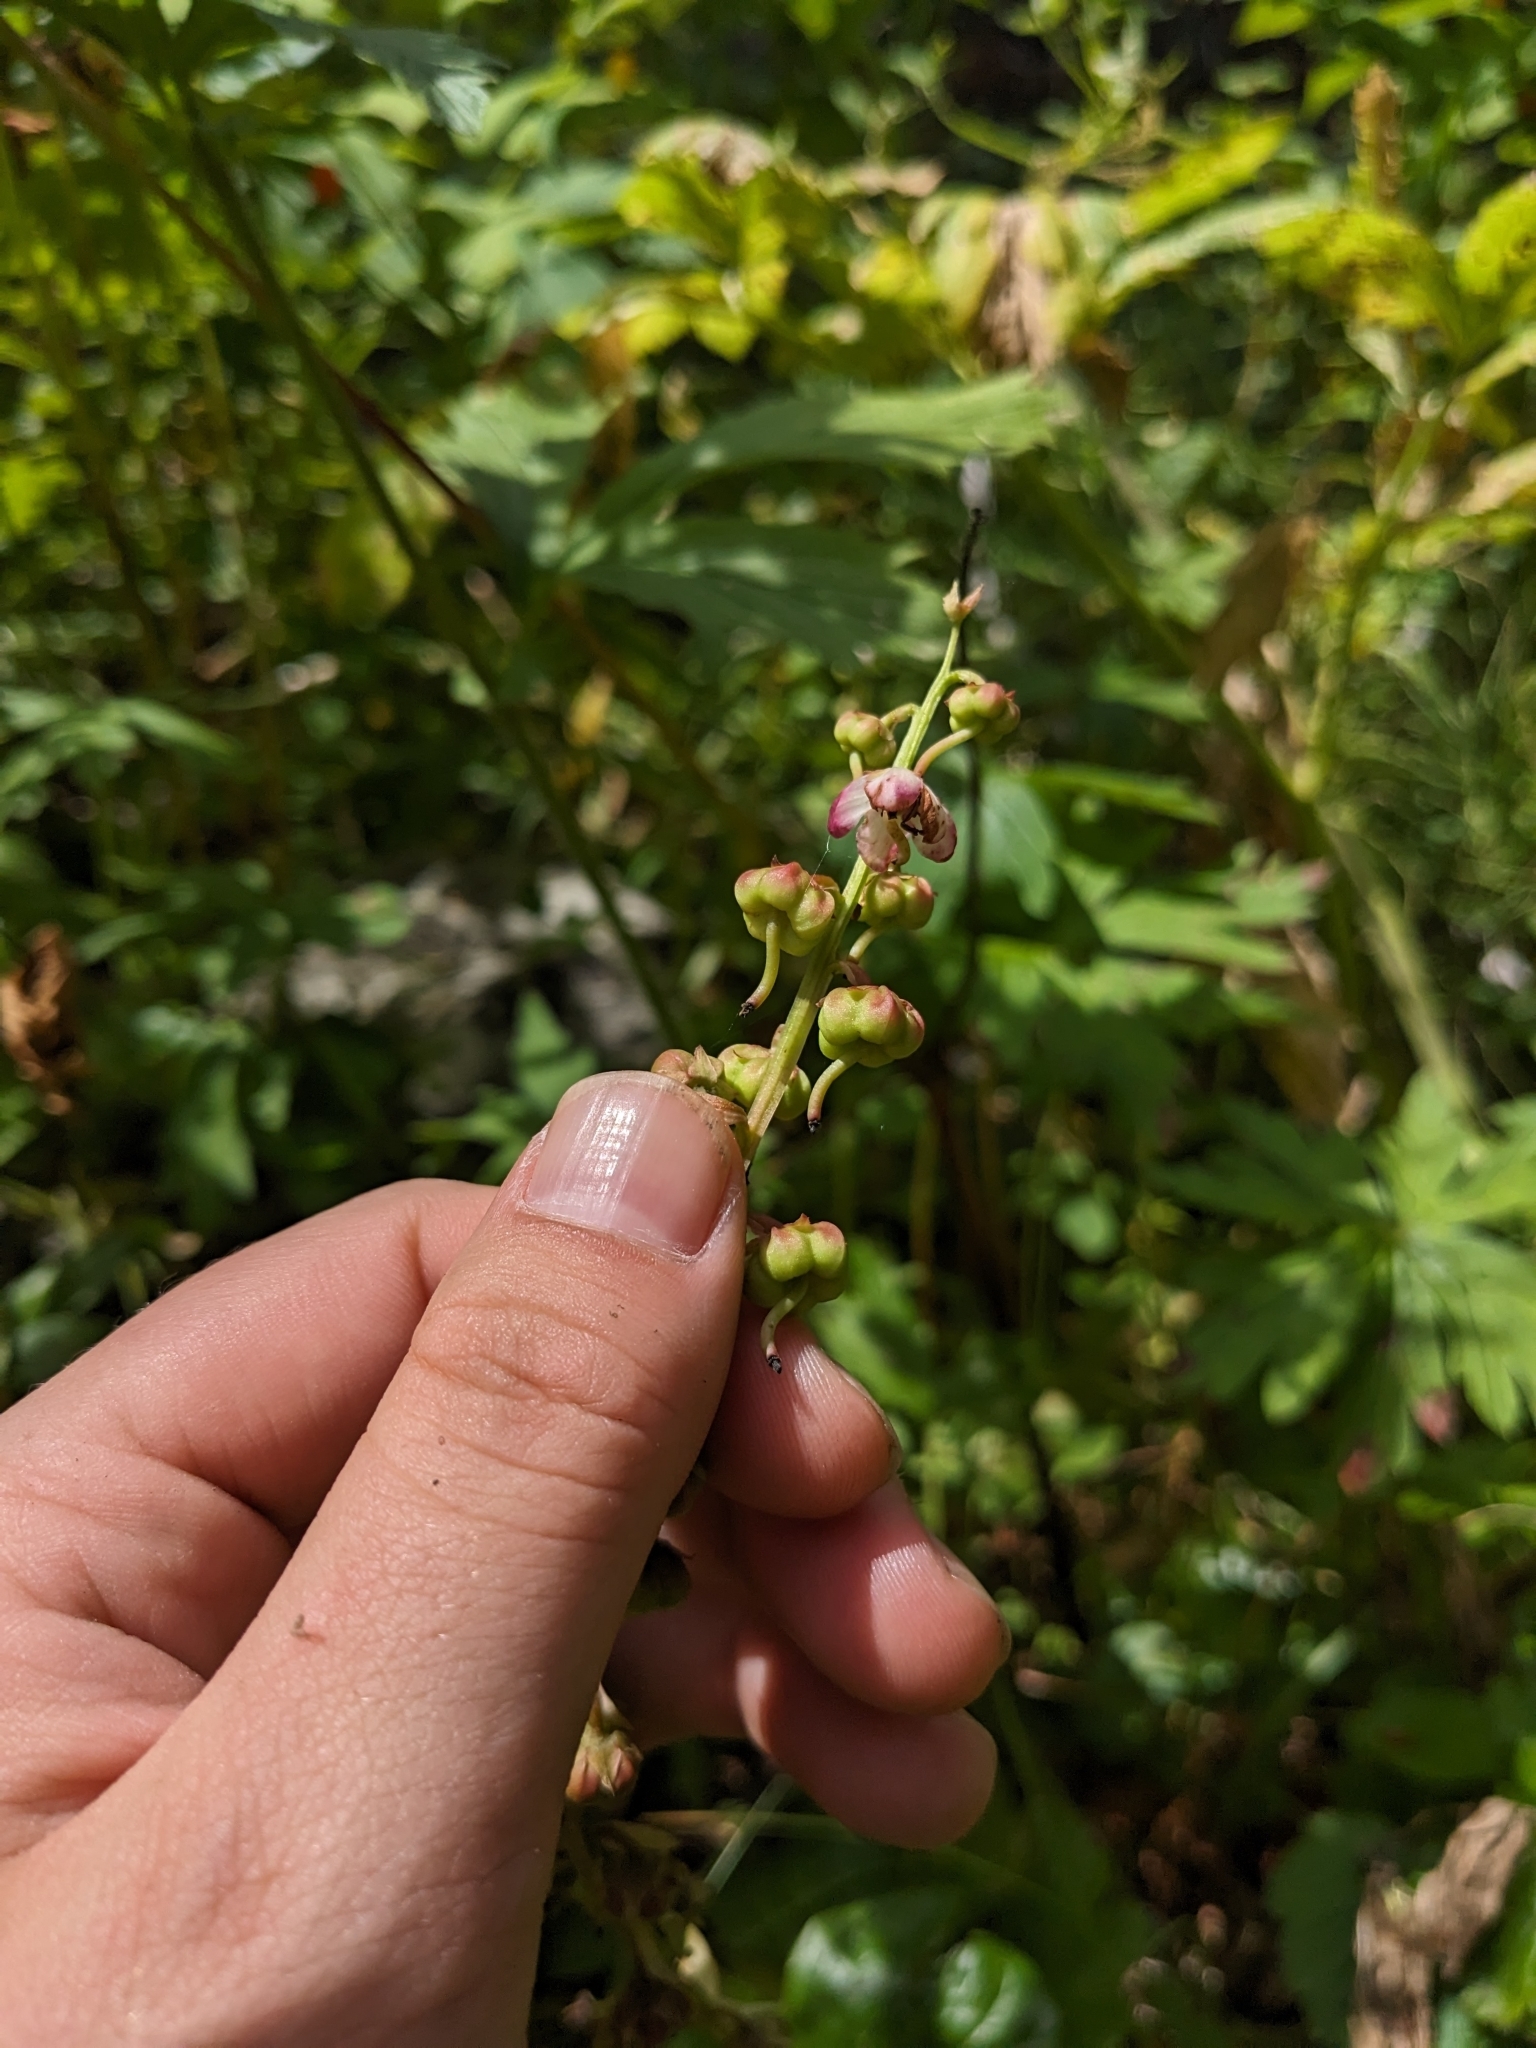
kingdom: Plantae
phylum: Tracheophyta
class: Magnoliopsida
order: Ericales
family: Ericaceae
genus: Pyrola
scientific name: Pyrola asarifolia
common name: Bog wintergreen
